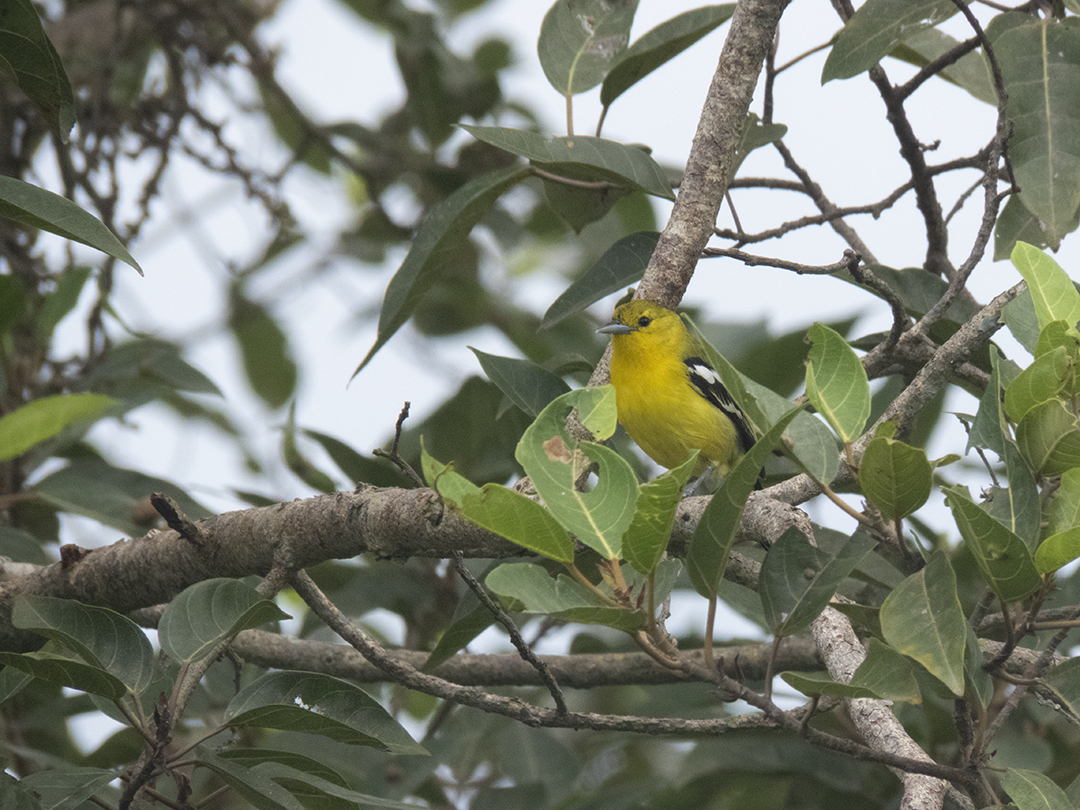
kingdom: Animalia
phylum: Chordata
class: Aves
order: Passeriformes
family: Aegithinidae
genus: Aegithina
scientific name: Aegithina tiphia
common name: Common iora
